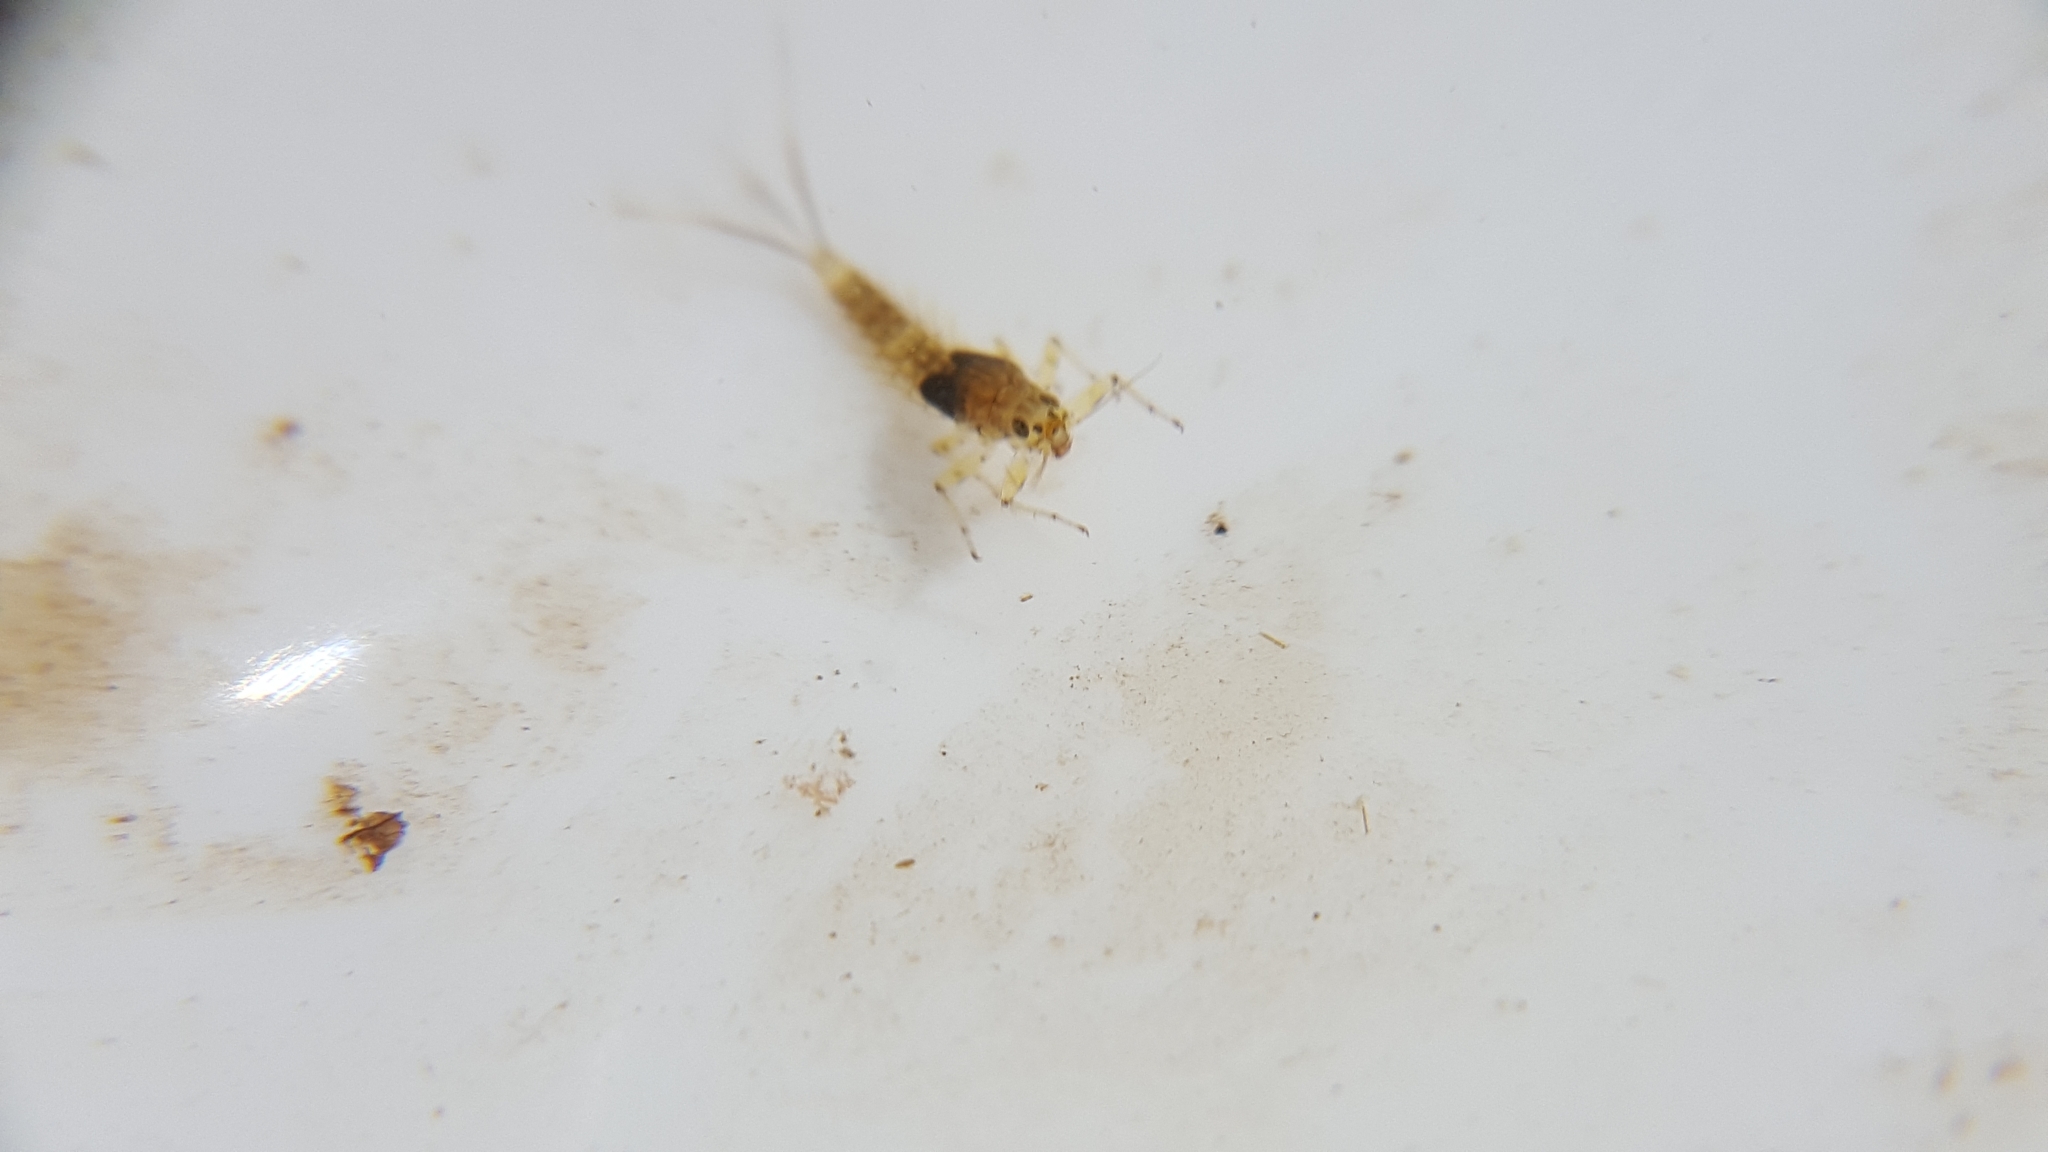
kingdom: Animalia
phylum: Arthropoda
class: Insecta
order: Ephemeroptera
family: Baetidae
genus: Baetis
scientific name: Baetis tricaudatus
